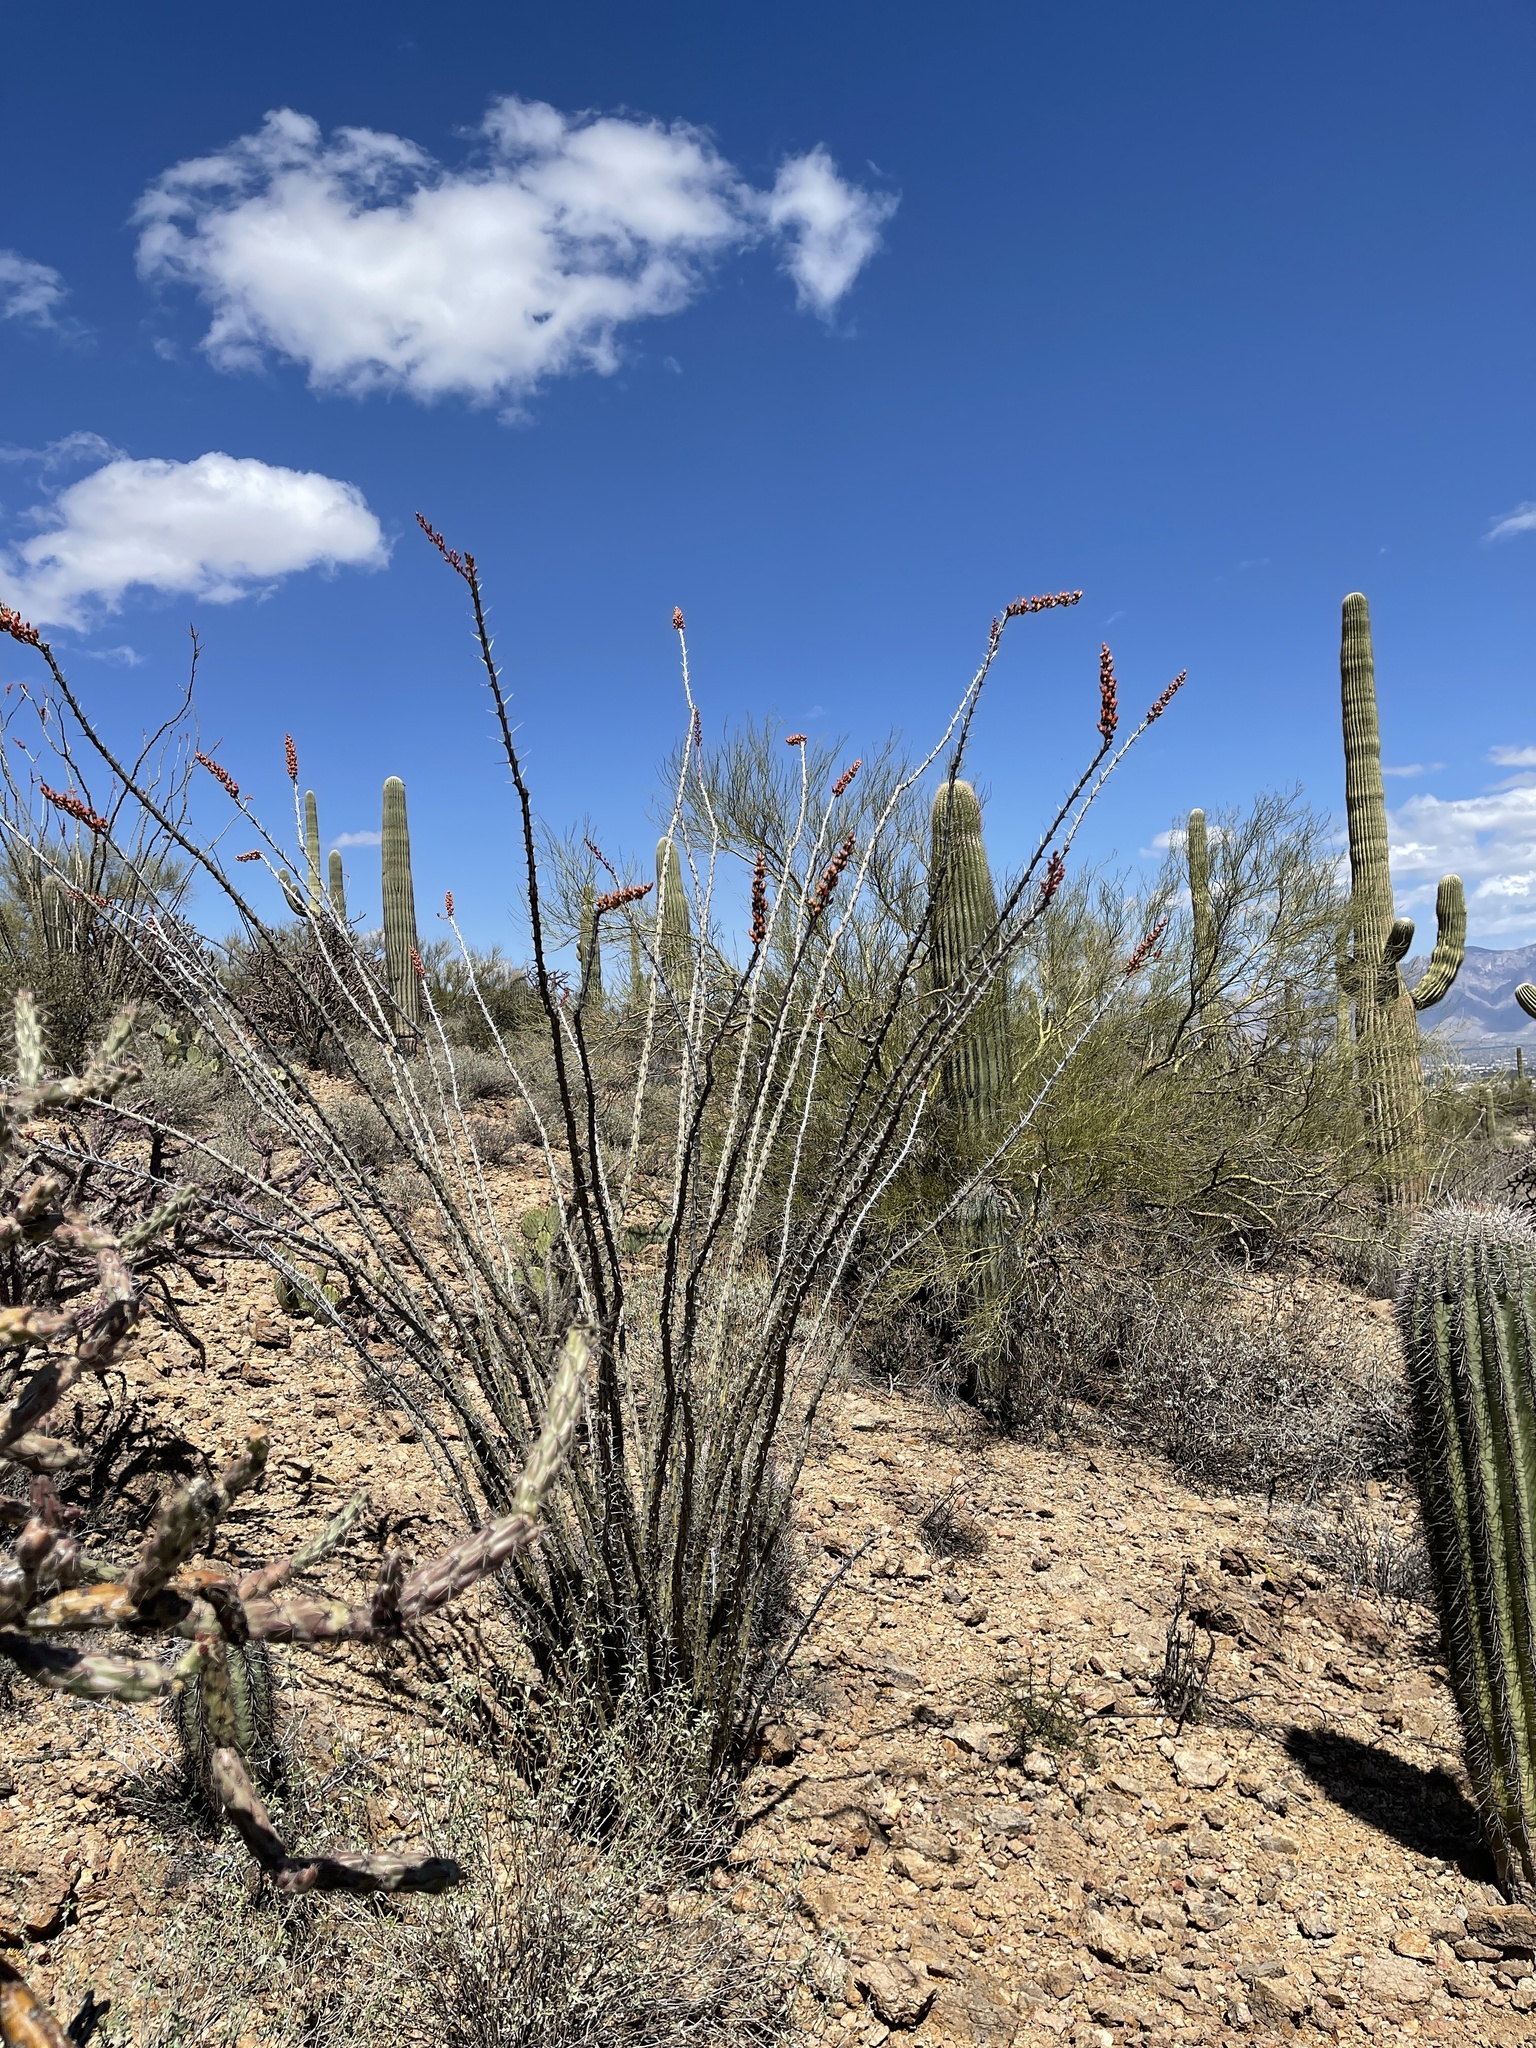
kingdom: Plantae
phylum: Tracheophyta
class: Magnoliopsida
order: Ericales
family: Fouquieriaceae
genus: Fouquieria
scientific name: Fouquieria splendens
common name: Vine-cactus
